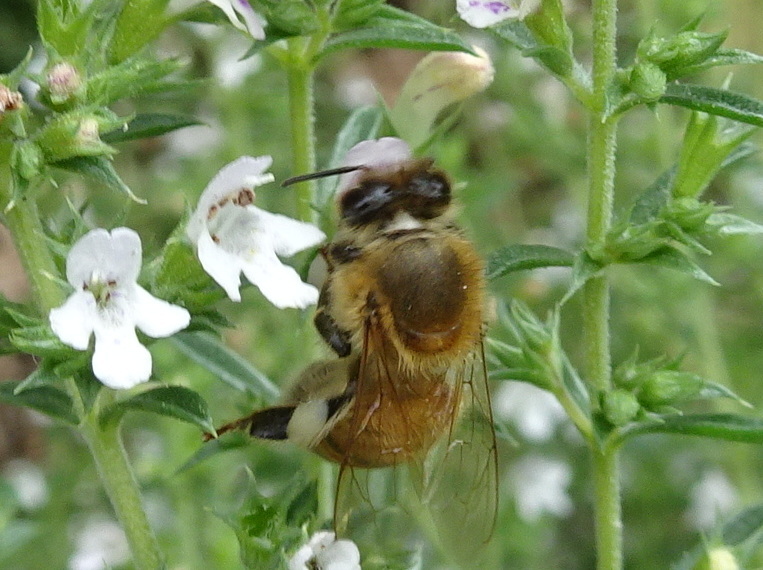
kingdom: Animalia
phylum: Arthropoda
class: Insecta
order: Hymenoptera
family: Apidae
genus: Apis
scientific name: Apis mellifera
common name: Honey bee
